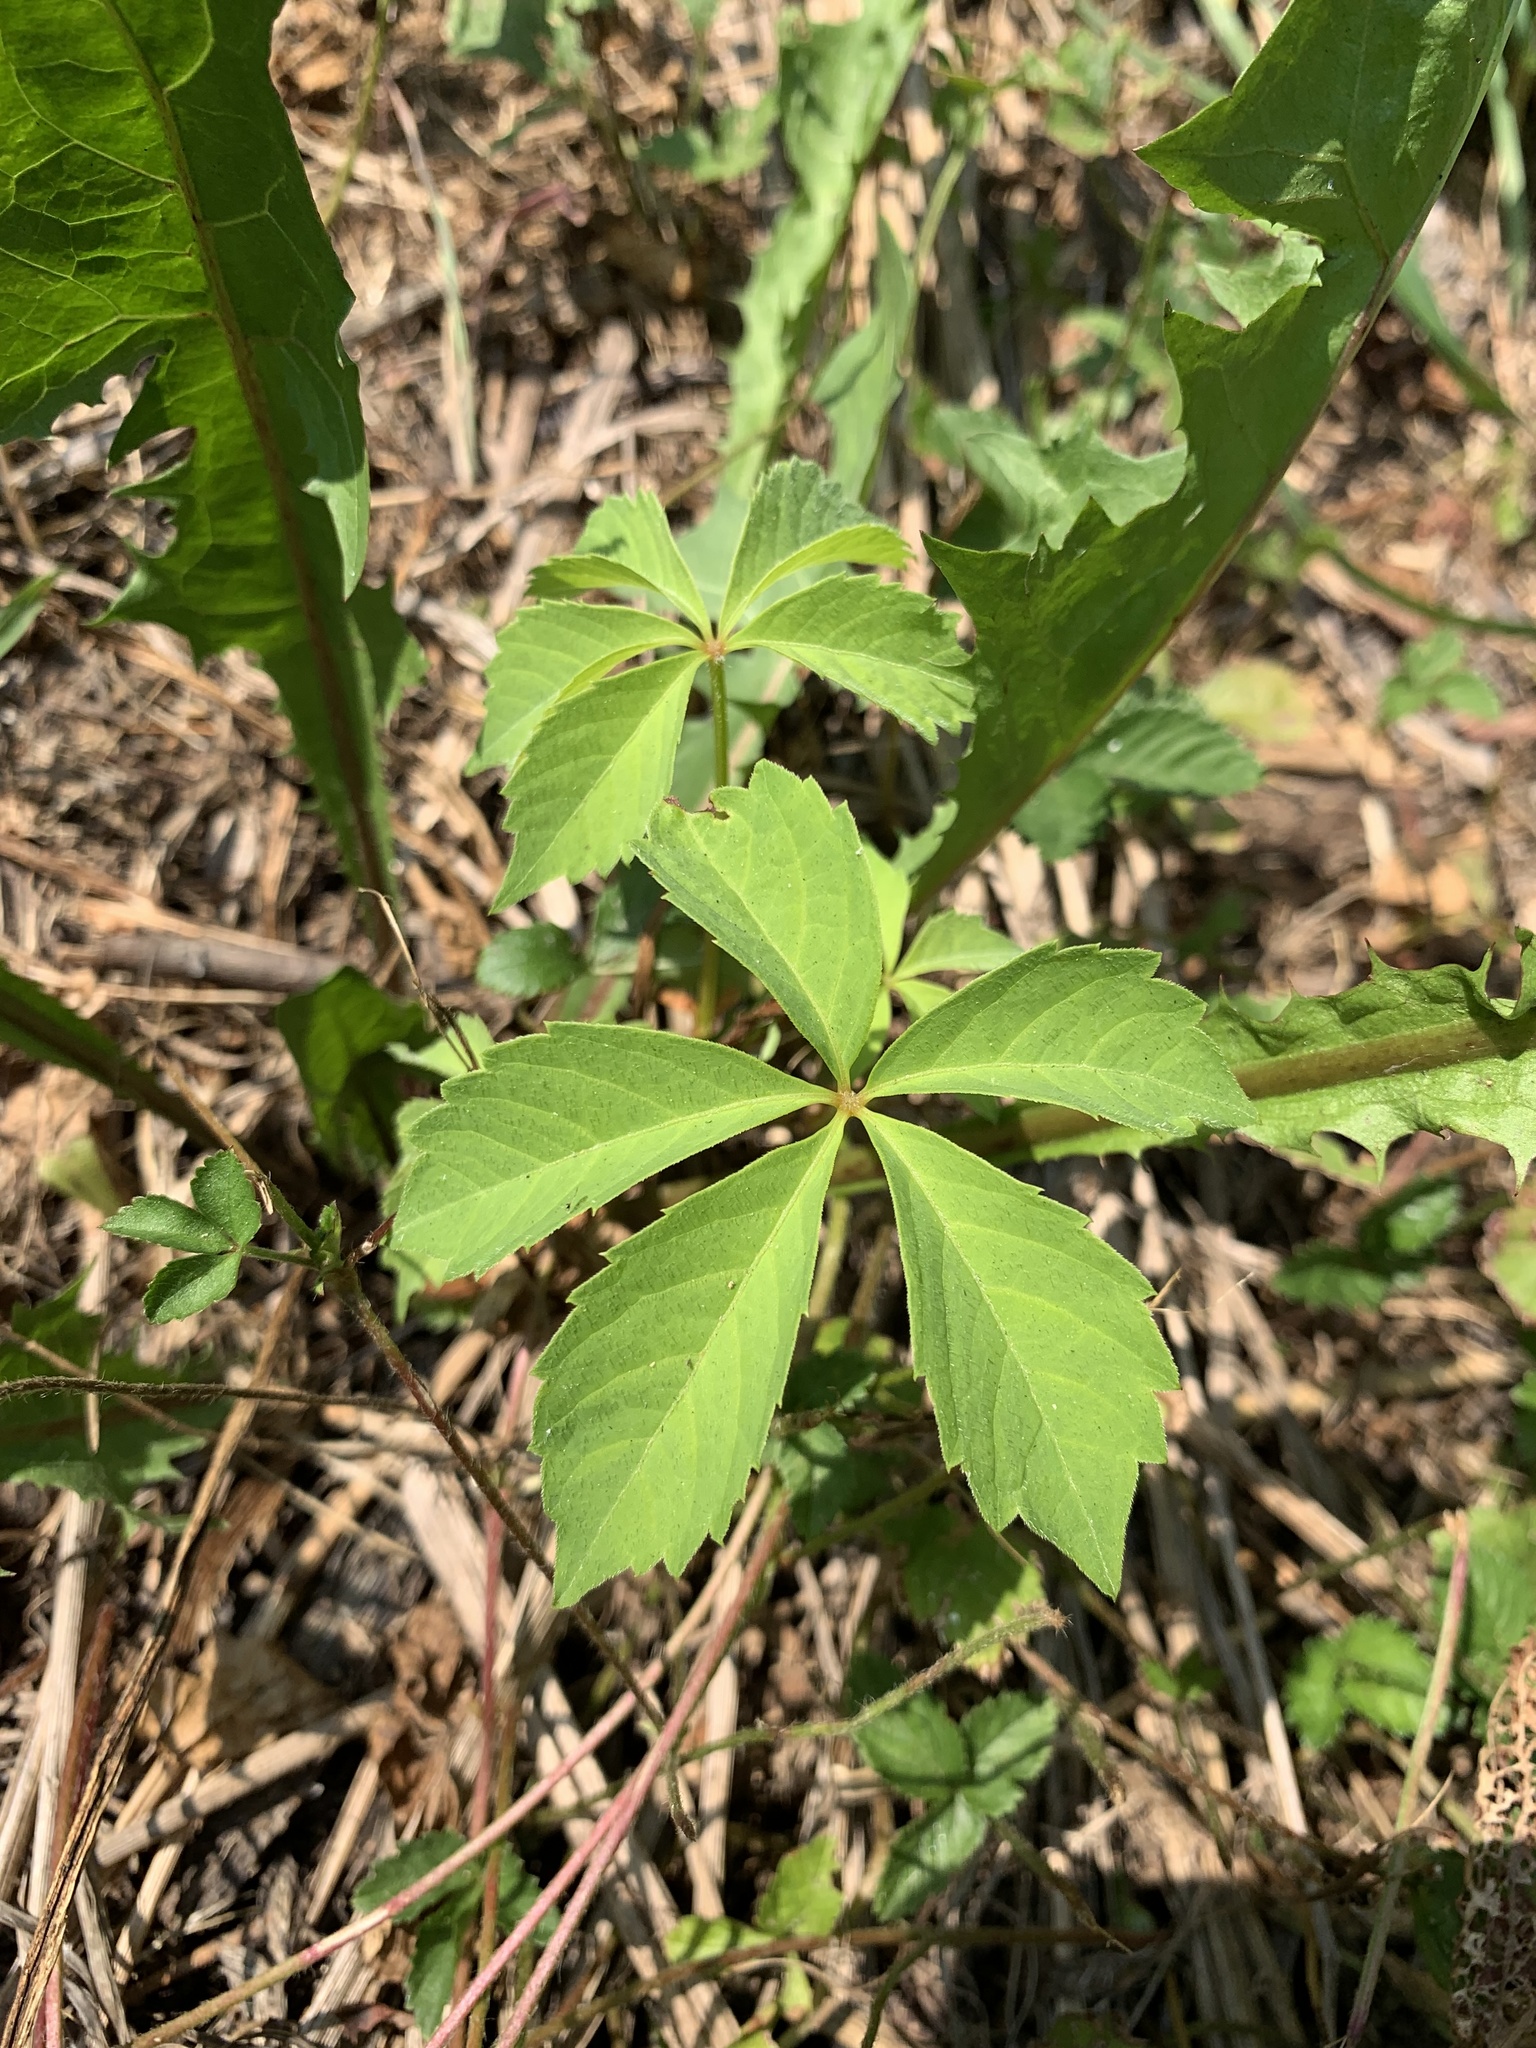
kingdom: Plantae
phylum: Tracheophyta
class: Magnoliopsida
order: Vitales
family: Vitaceae
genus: Parthenocissus
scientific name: Parthenocissus quinquefolia
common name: Virginia-creeper
